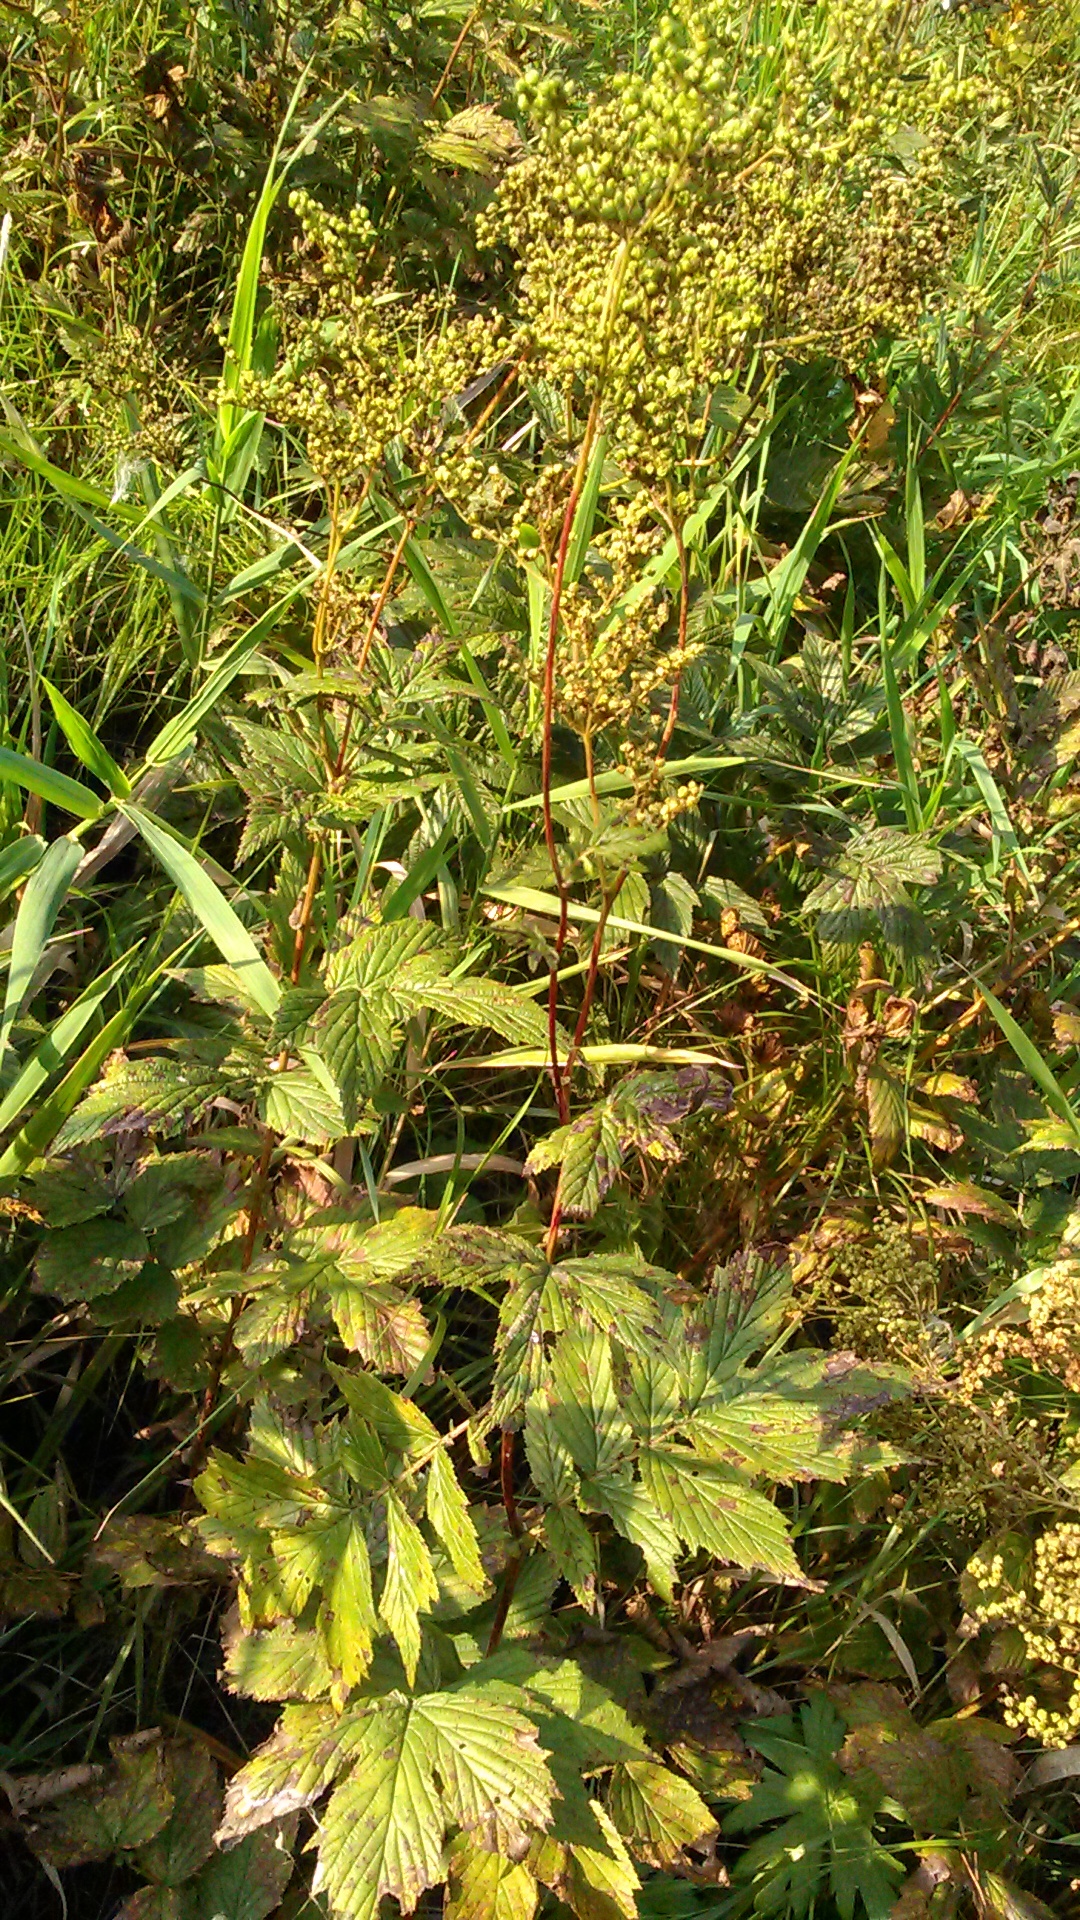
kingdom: Plantae
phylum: Tracheophyta
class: Magnoliopsida
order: Rosales
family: Rosaceae
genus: Filipendula
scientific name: Filipendula ulmaria
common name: Meadowsweet
